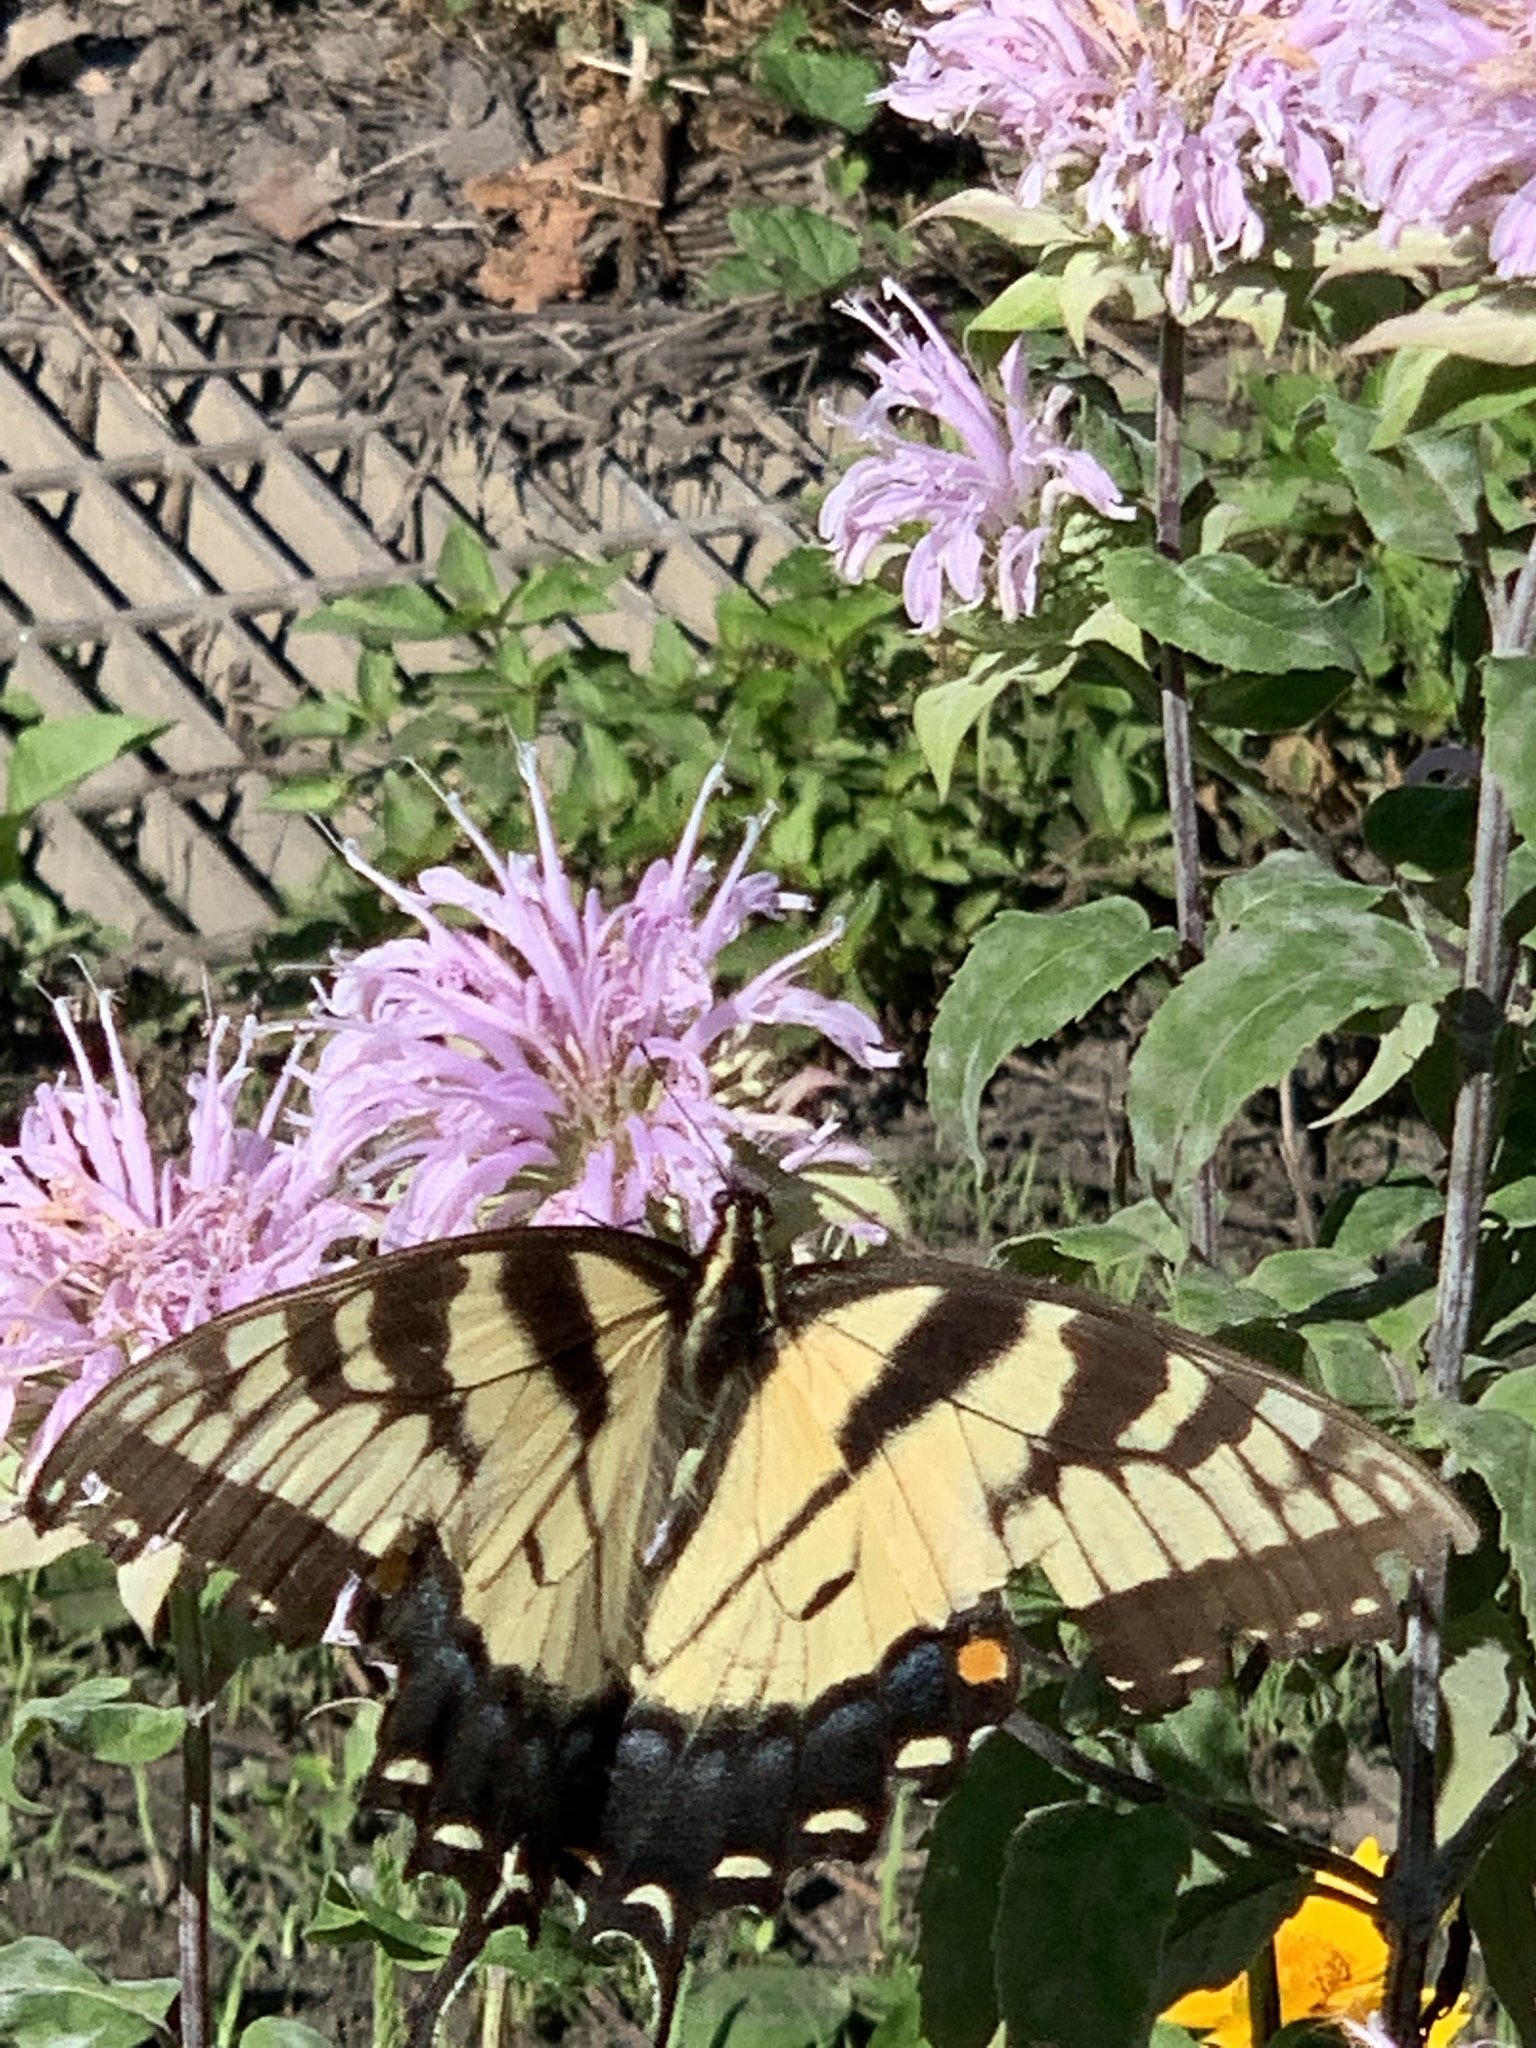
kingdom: Animalia
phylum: Arthropoda
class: Insecta
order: Lepidoptera
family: Papilionidae
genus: Papilio
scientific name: Papilio glaucus
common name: Tiger swallowtail
